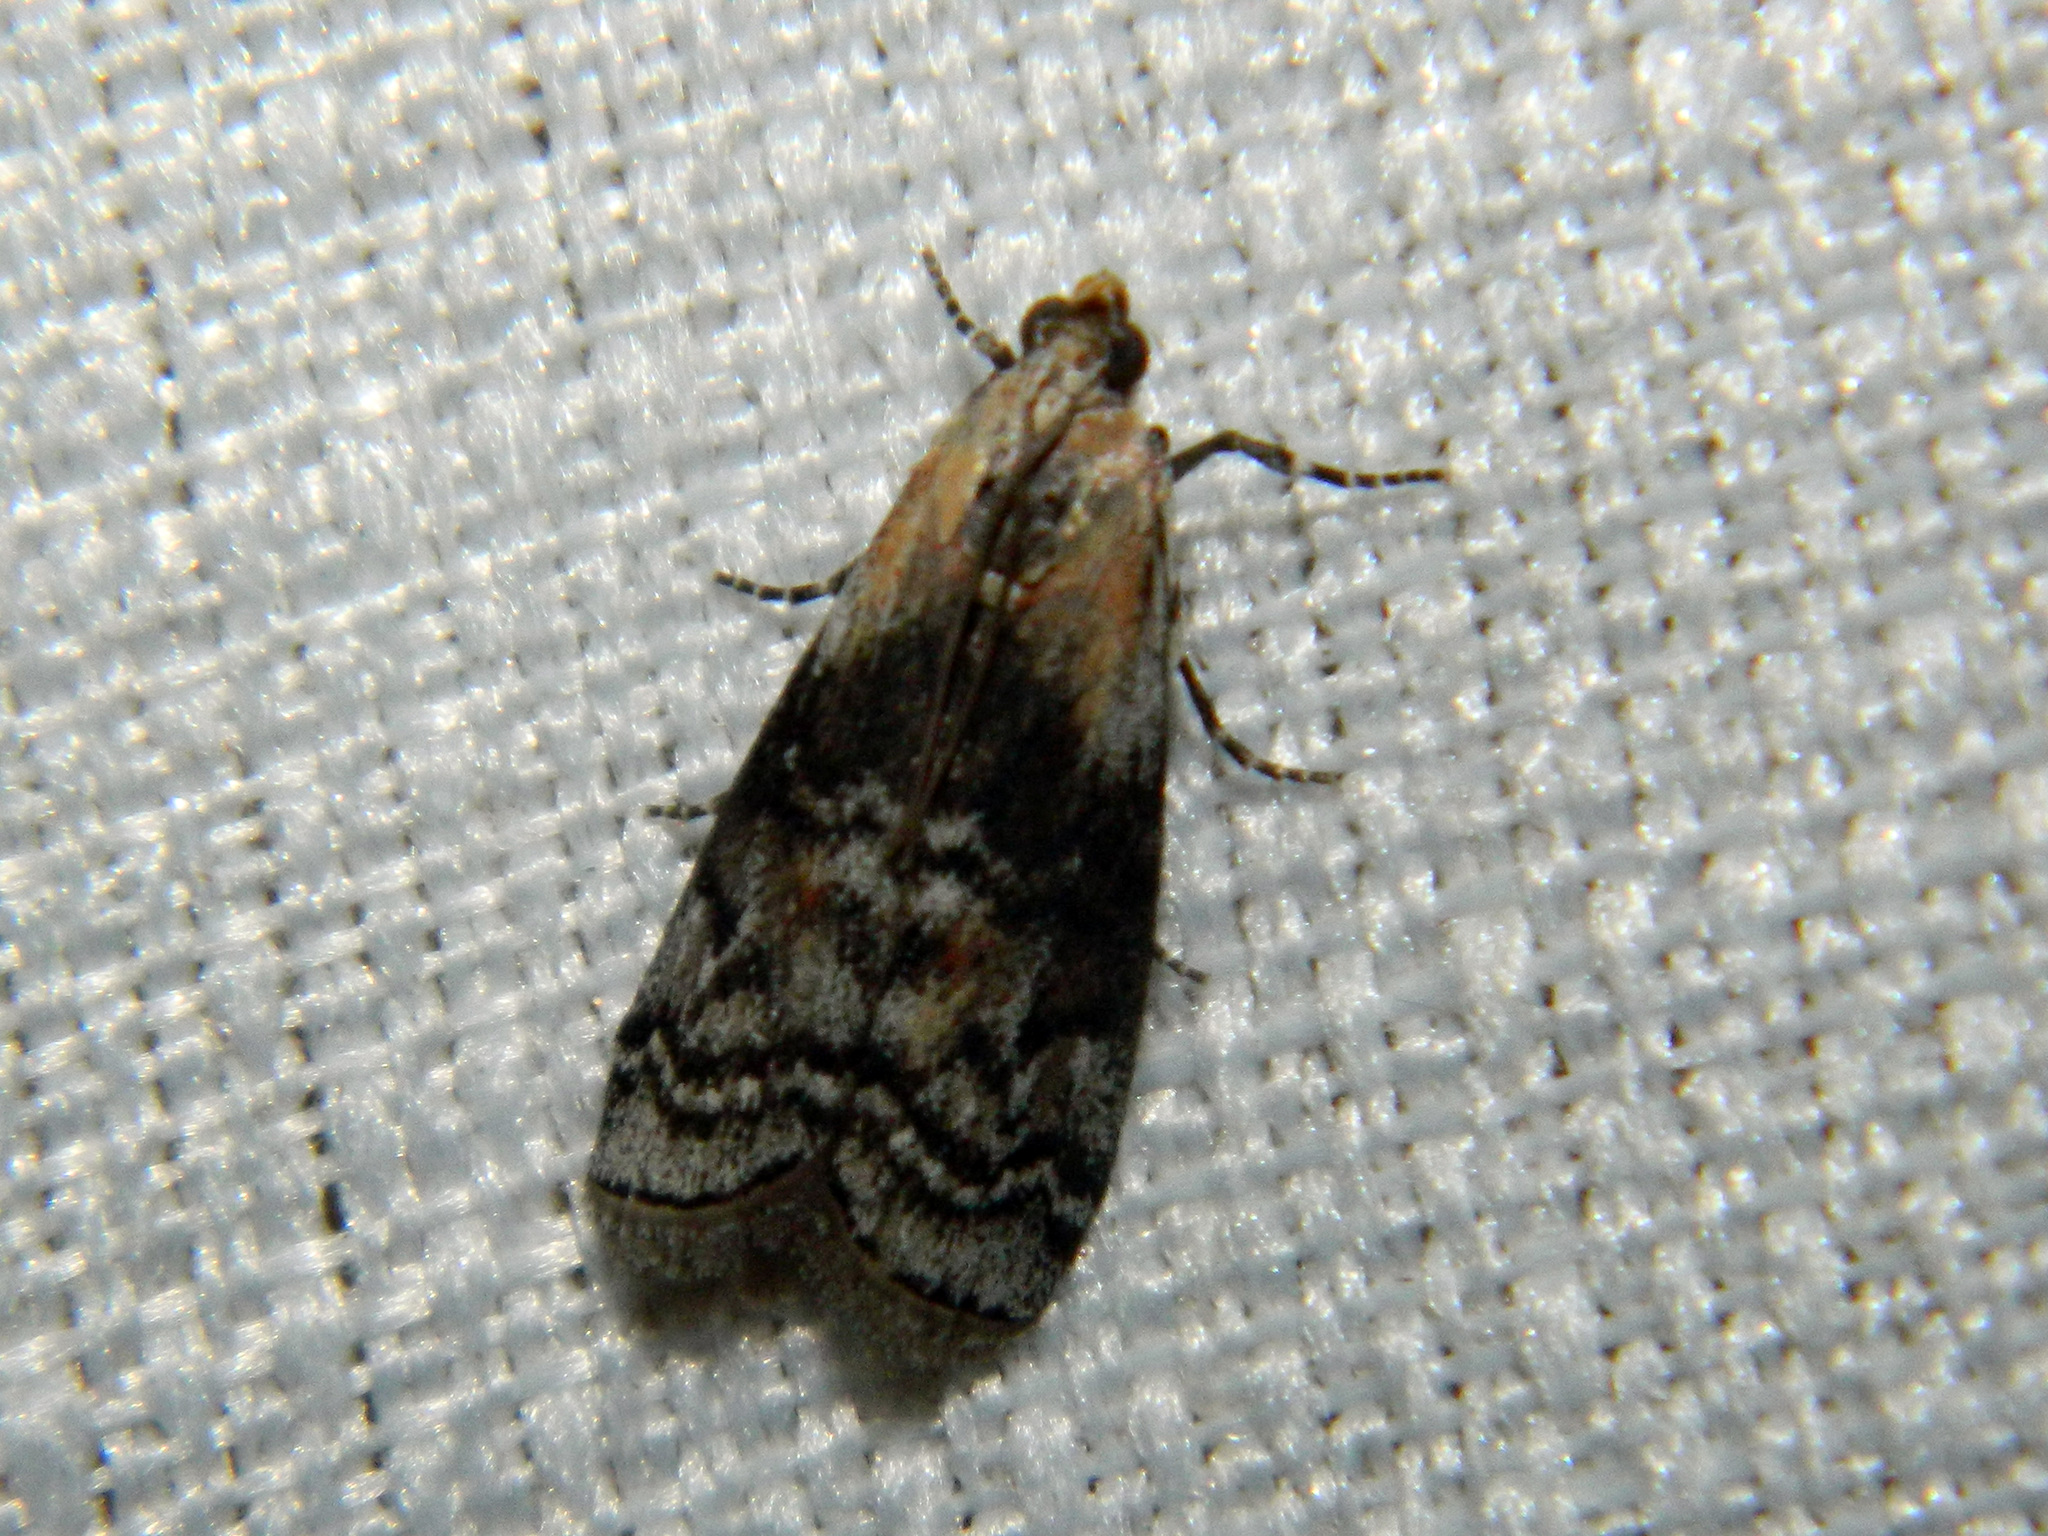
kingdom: Animalia
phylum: Arthropoda
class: Insecta
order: Lepidoptera
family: Pyralidae
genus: Glyptocera
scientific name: Glyptocera consobrinella
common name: Viburnum glyptocera moth
